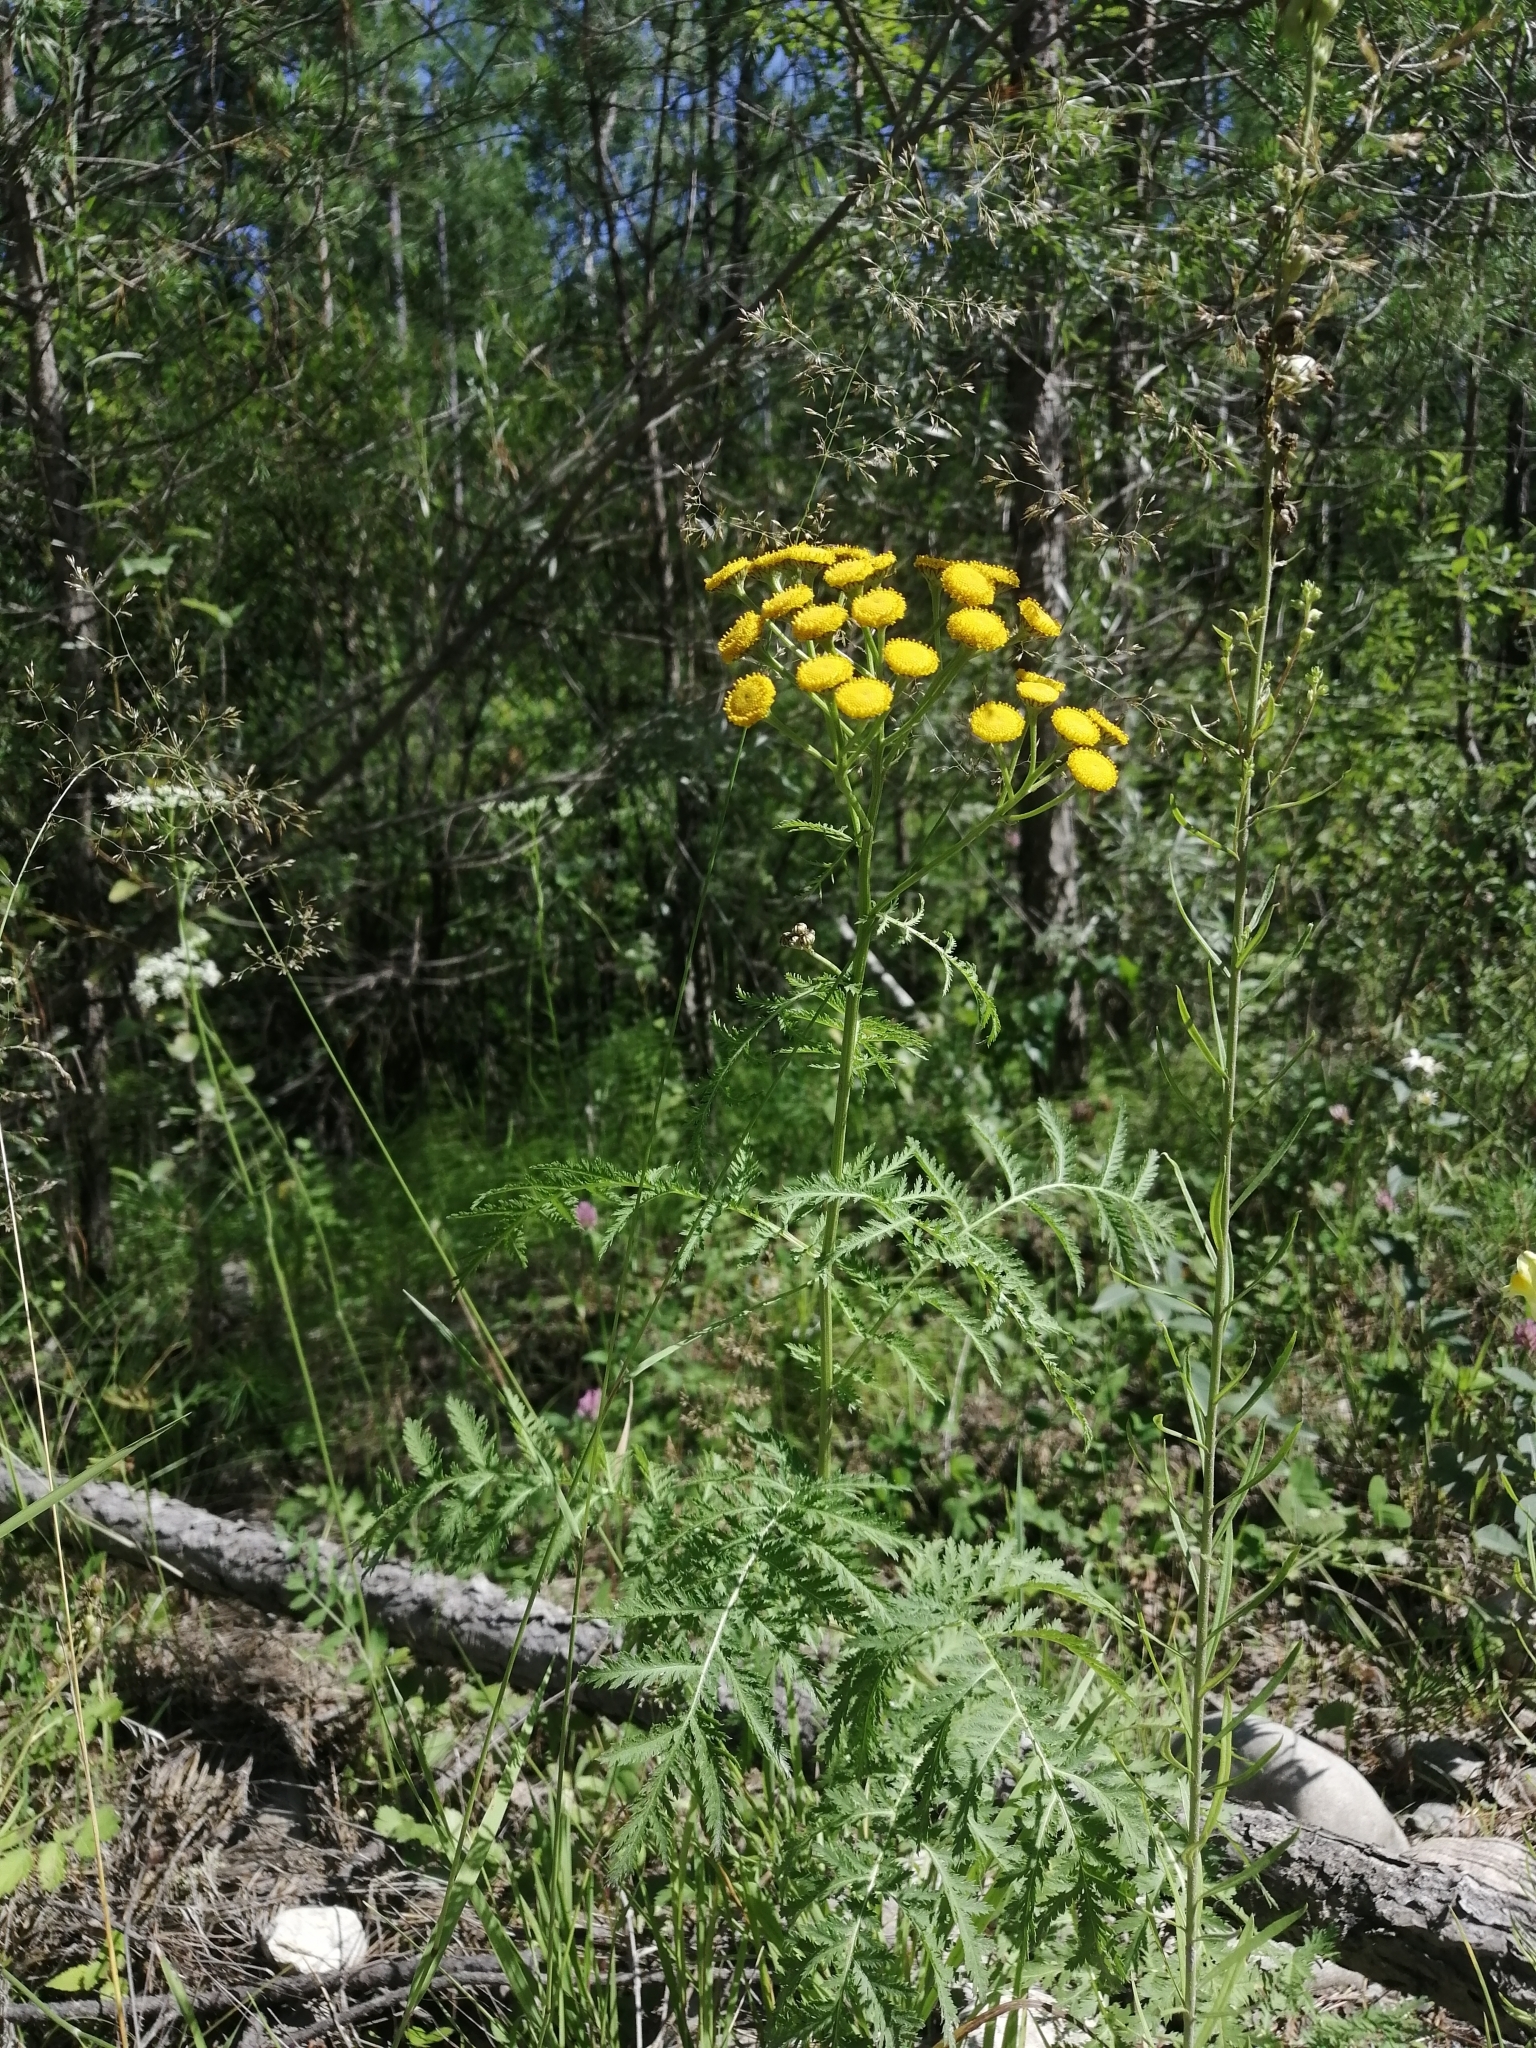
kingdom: Plantae
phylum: Tracheophyta
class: Magnoliopsida
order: Asterales
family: Asteraceae
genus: Tanacetum
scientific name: Tanacetum vulgare
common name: Common tansy
